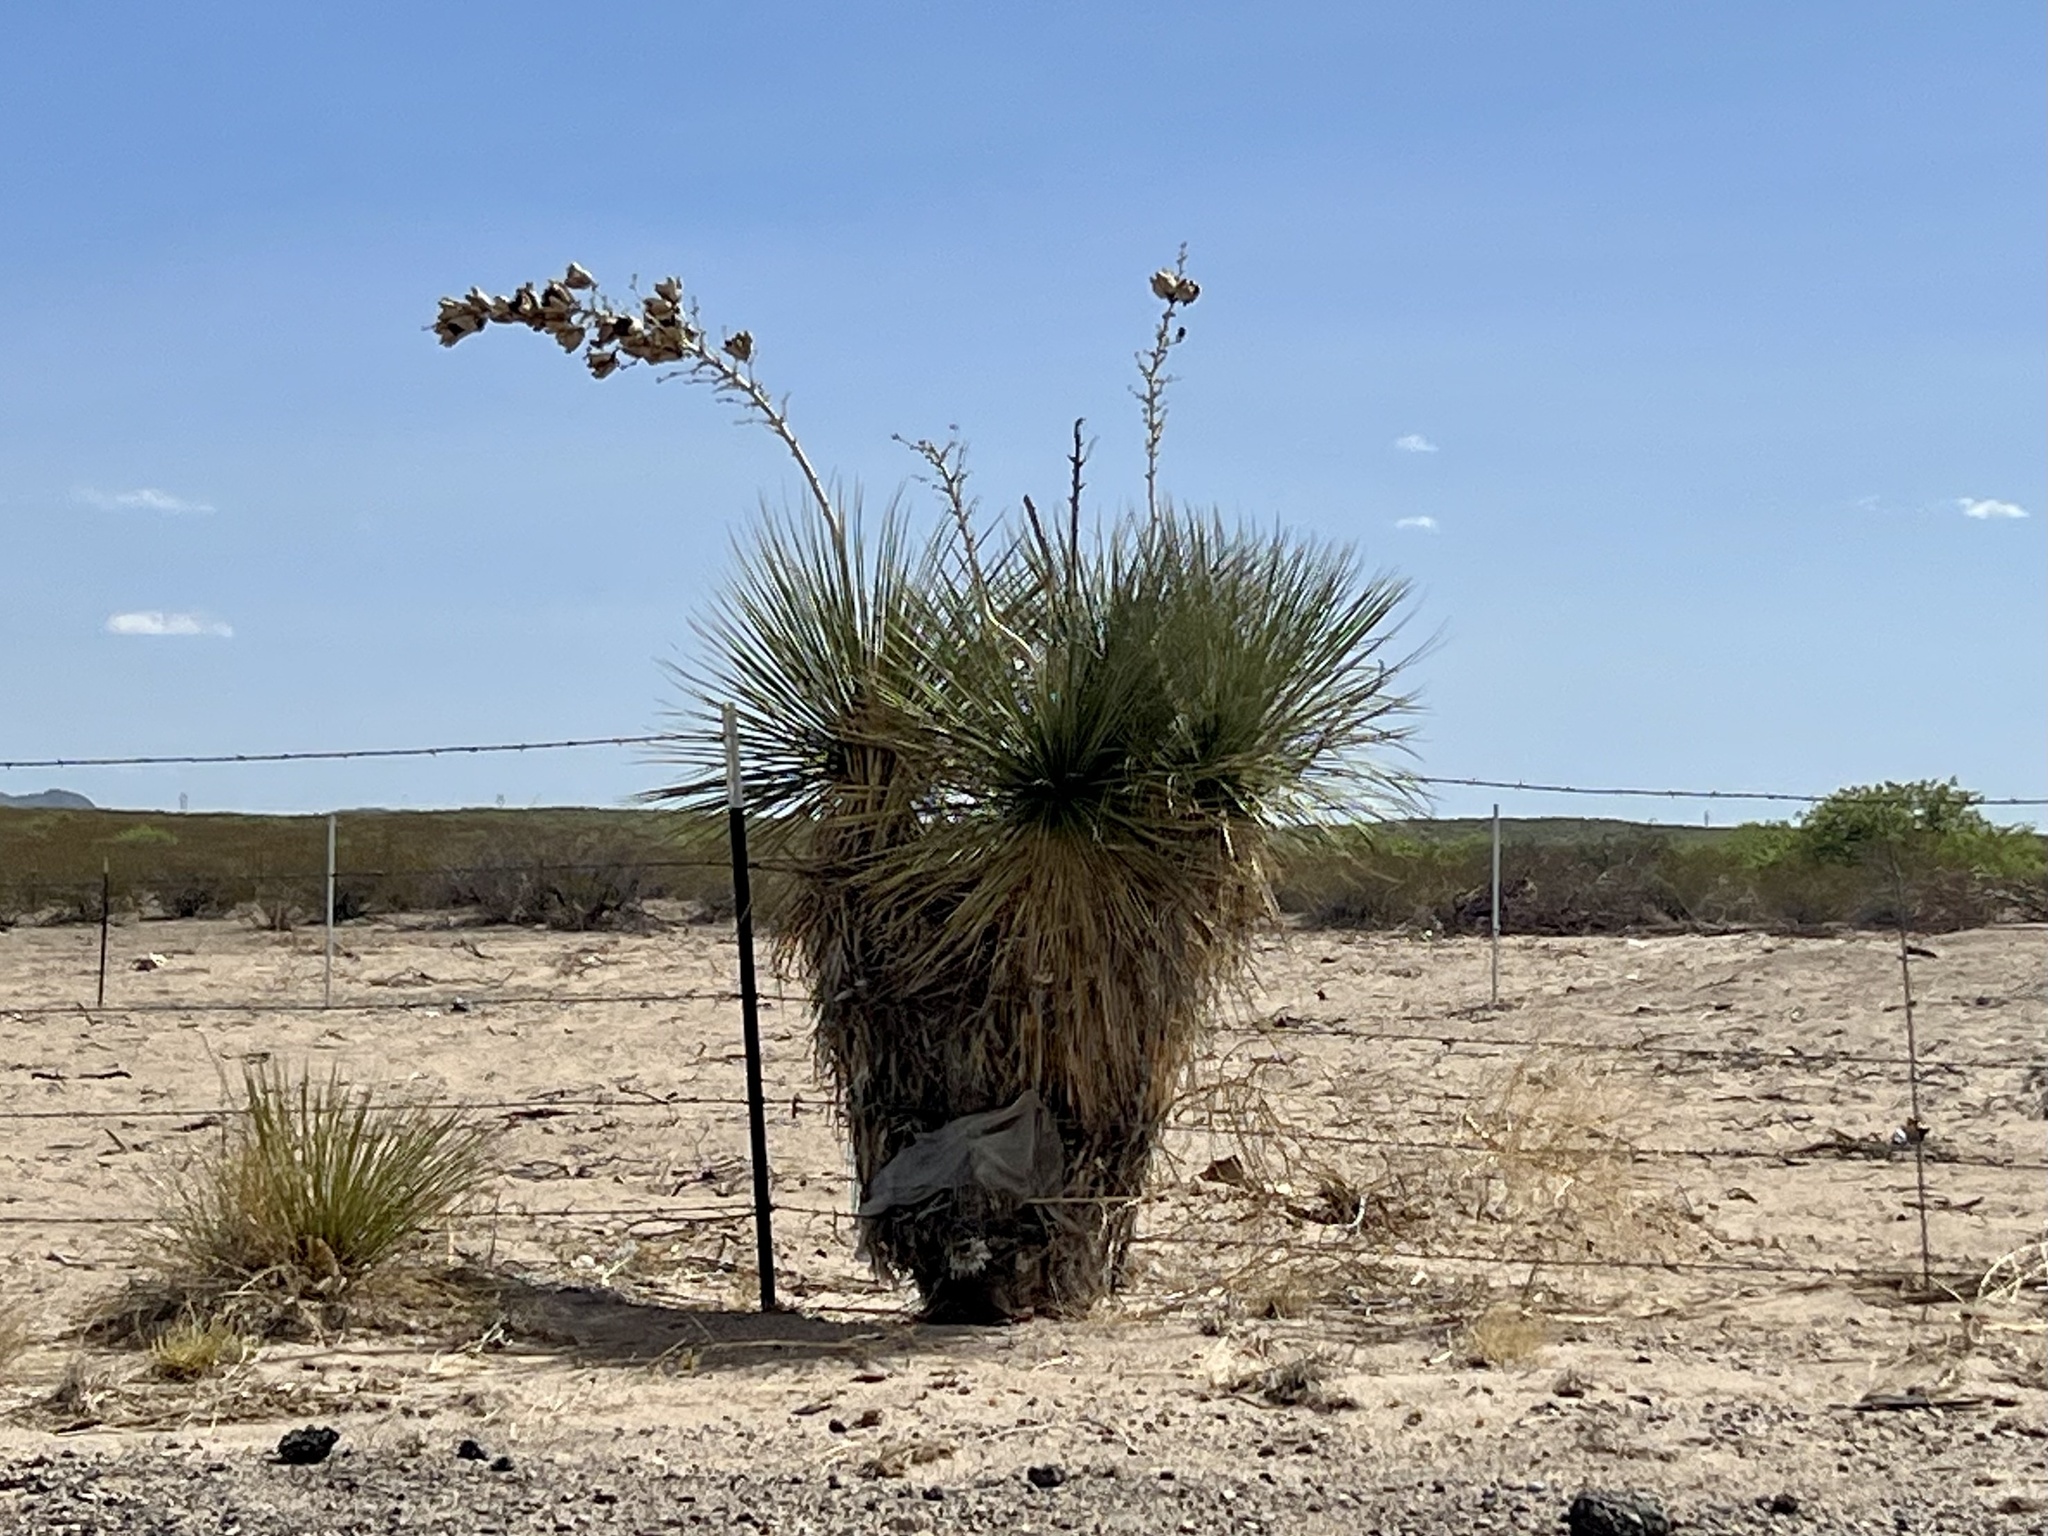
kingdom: Plantae
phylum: Tracheophyta
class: Liliopsida
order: Asparagales
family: Asparagaceae
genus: Yucca
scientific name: Yucca elata
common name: Palmella
